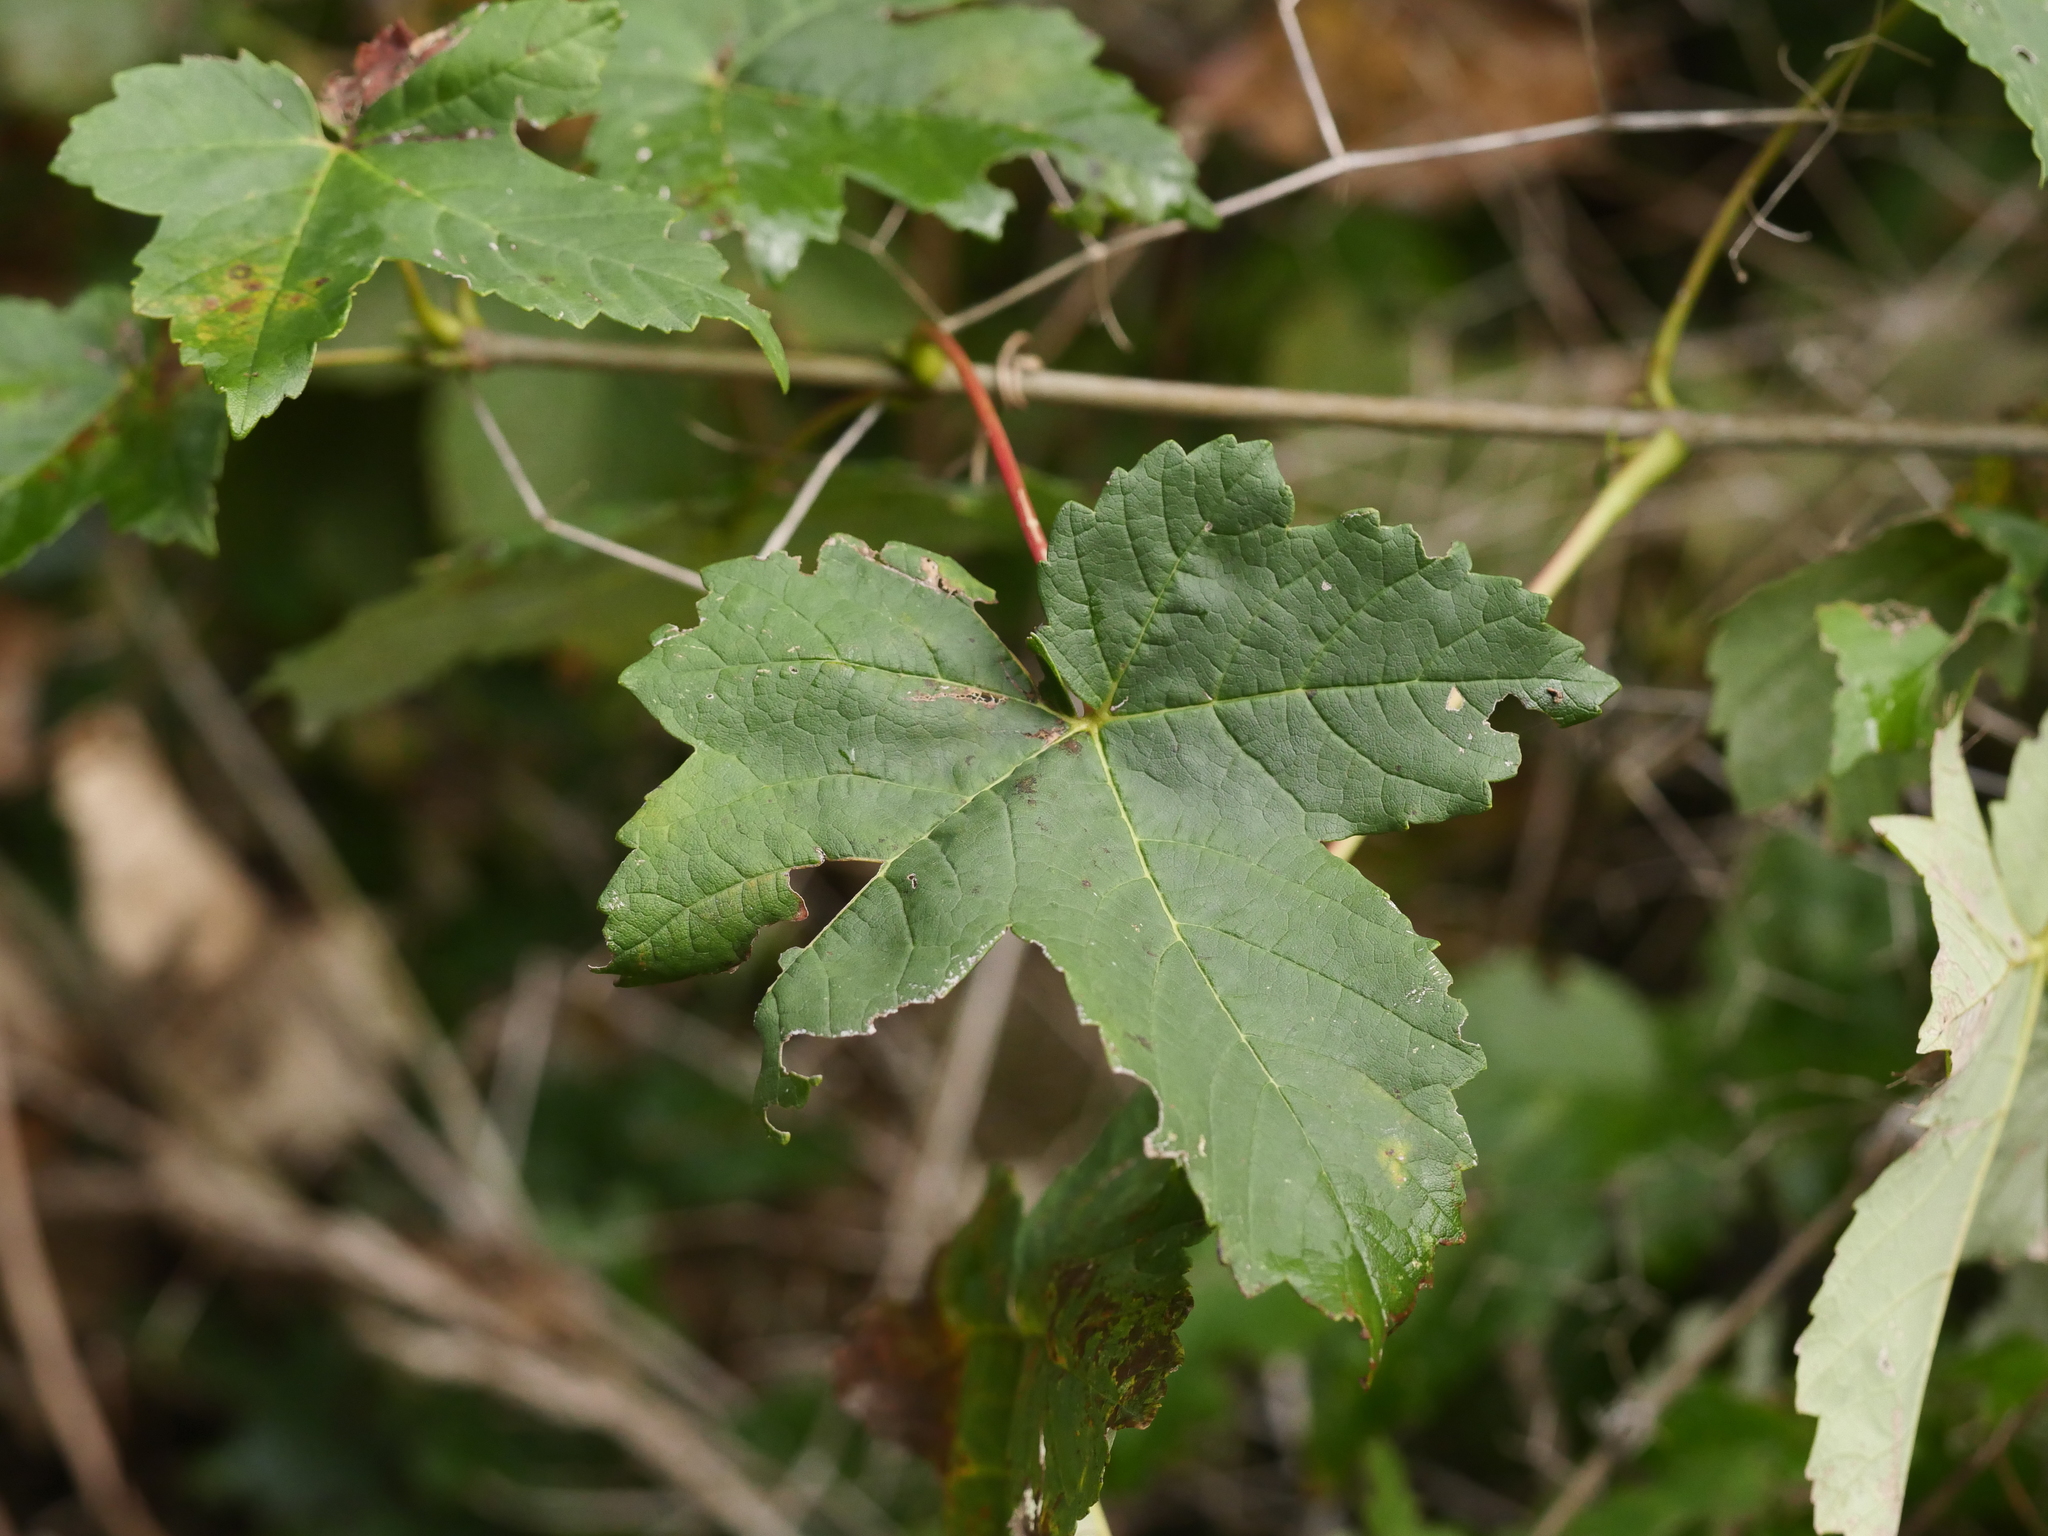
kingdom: Plantae
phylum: Tracheophyta
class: Magnoliopsida
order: Sapindales
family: Sapindaceae
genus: Acer
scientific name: Acer pseudoplatanus
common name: Sycamore
